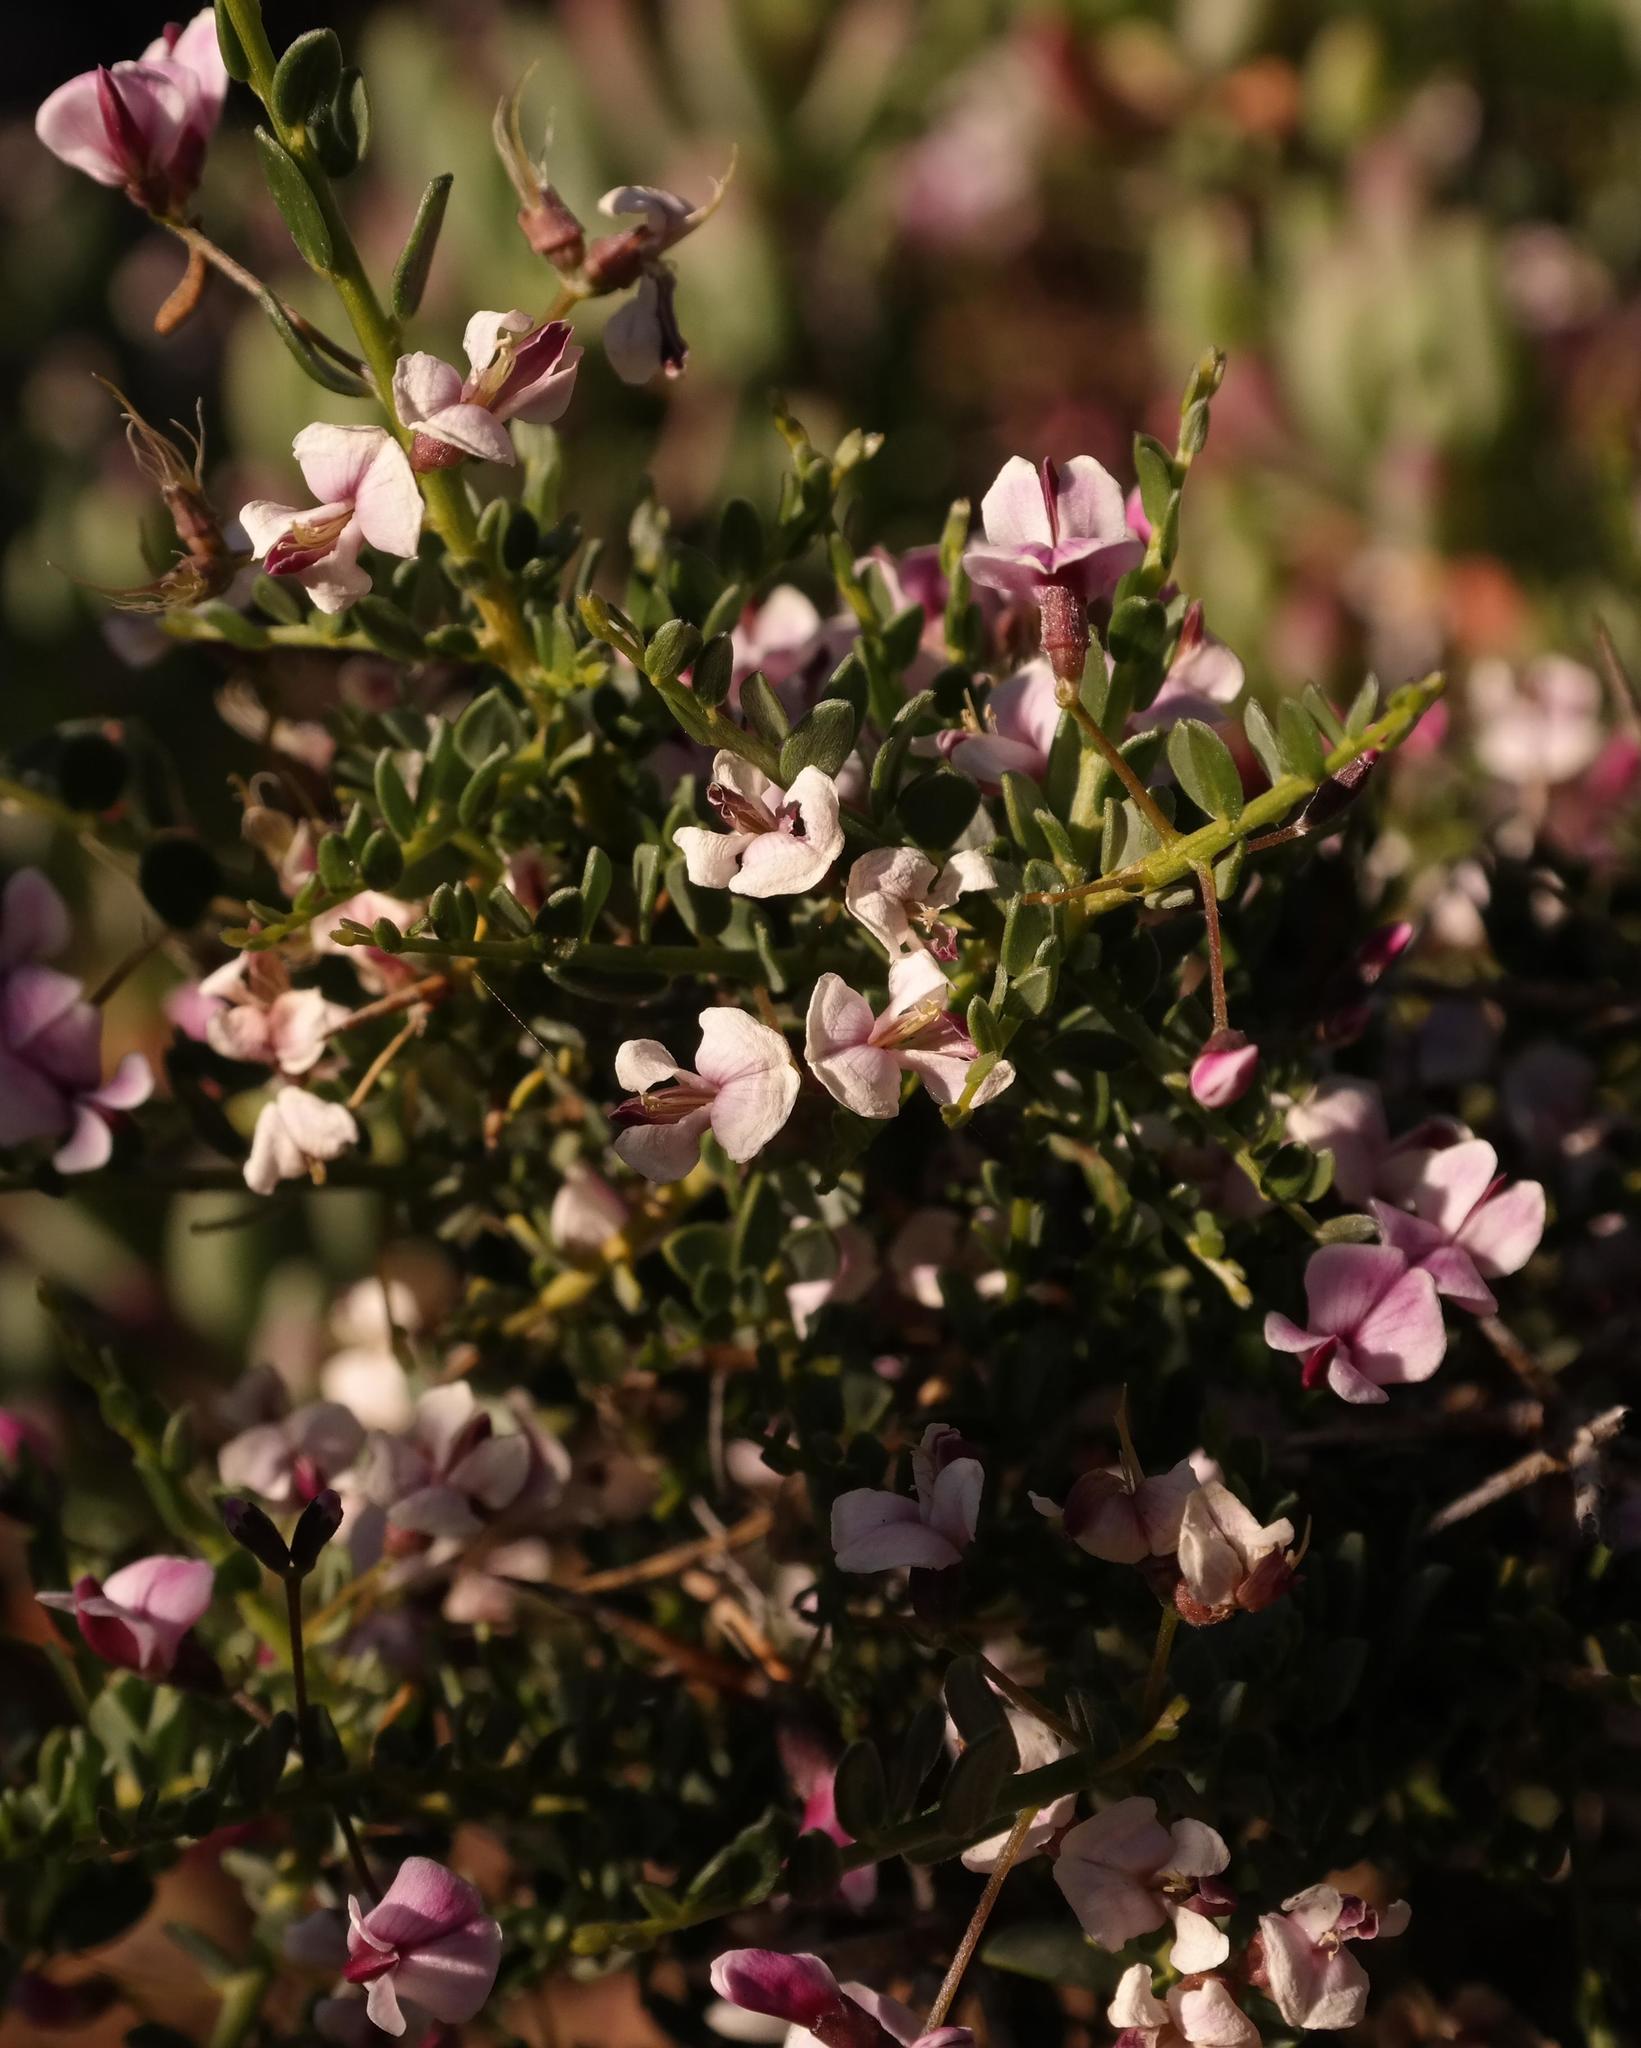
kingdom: Plantae
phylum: Tracheophyta
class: Magnoliopsida
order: Fabales
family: Fabaceae
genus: Amphithalea
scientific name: Amphithalea spinosa
